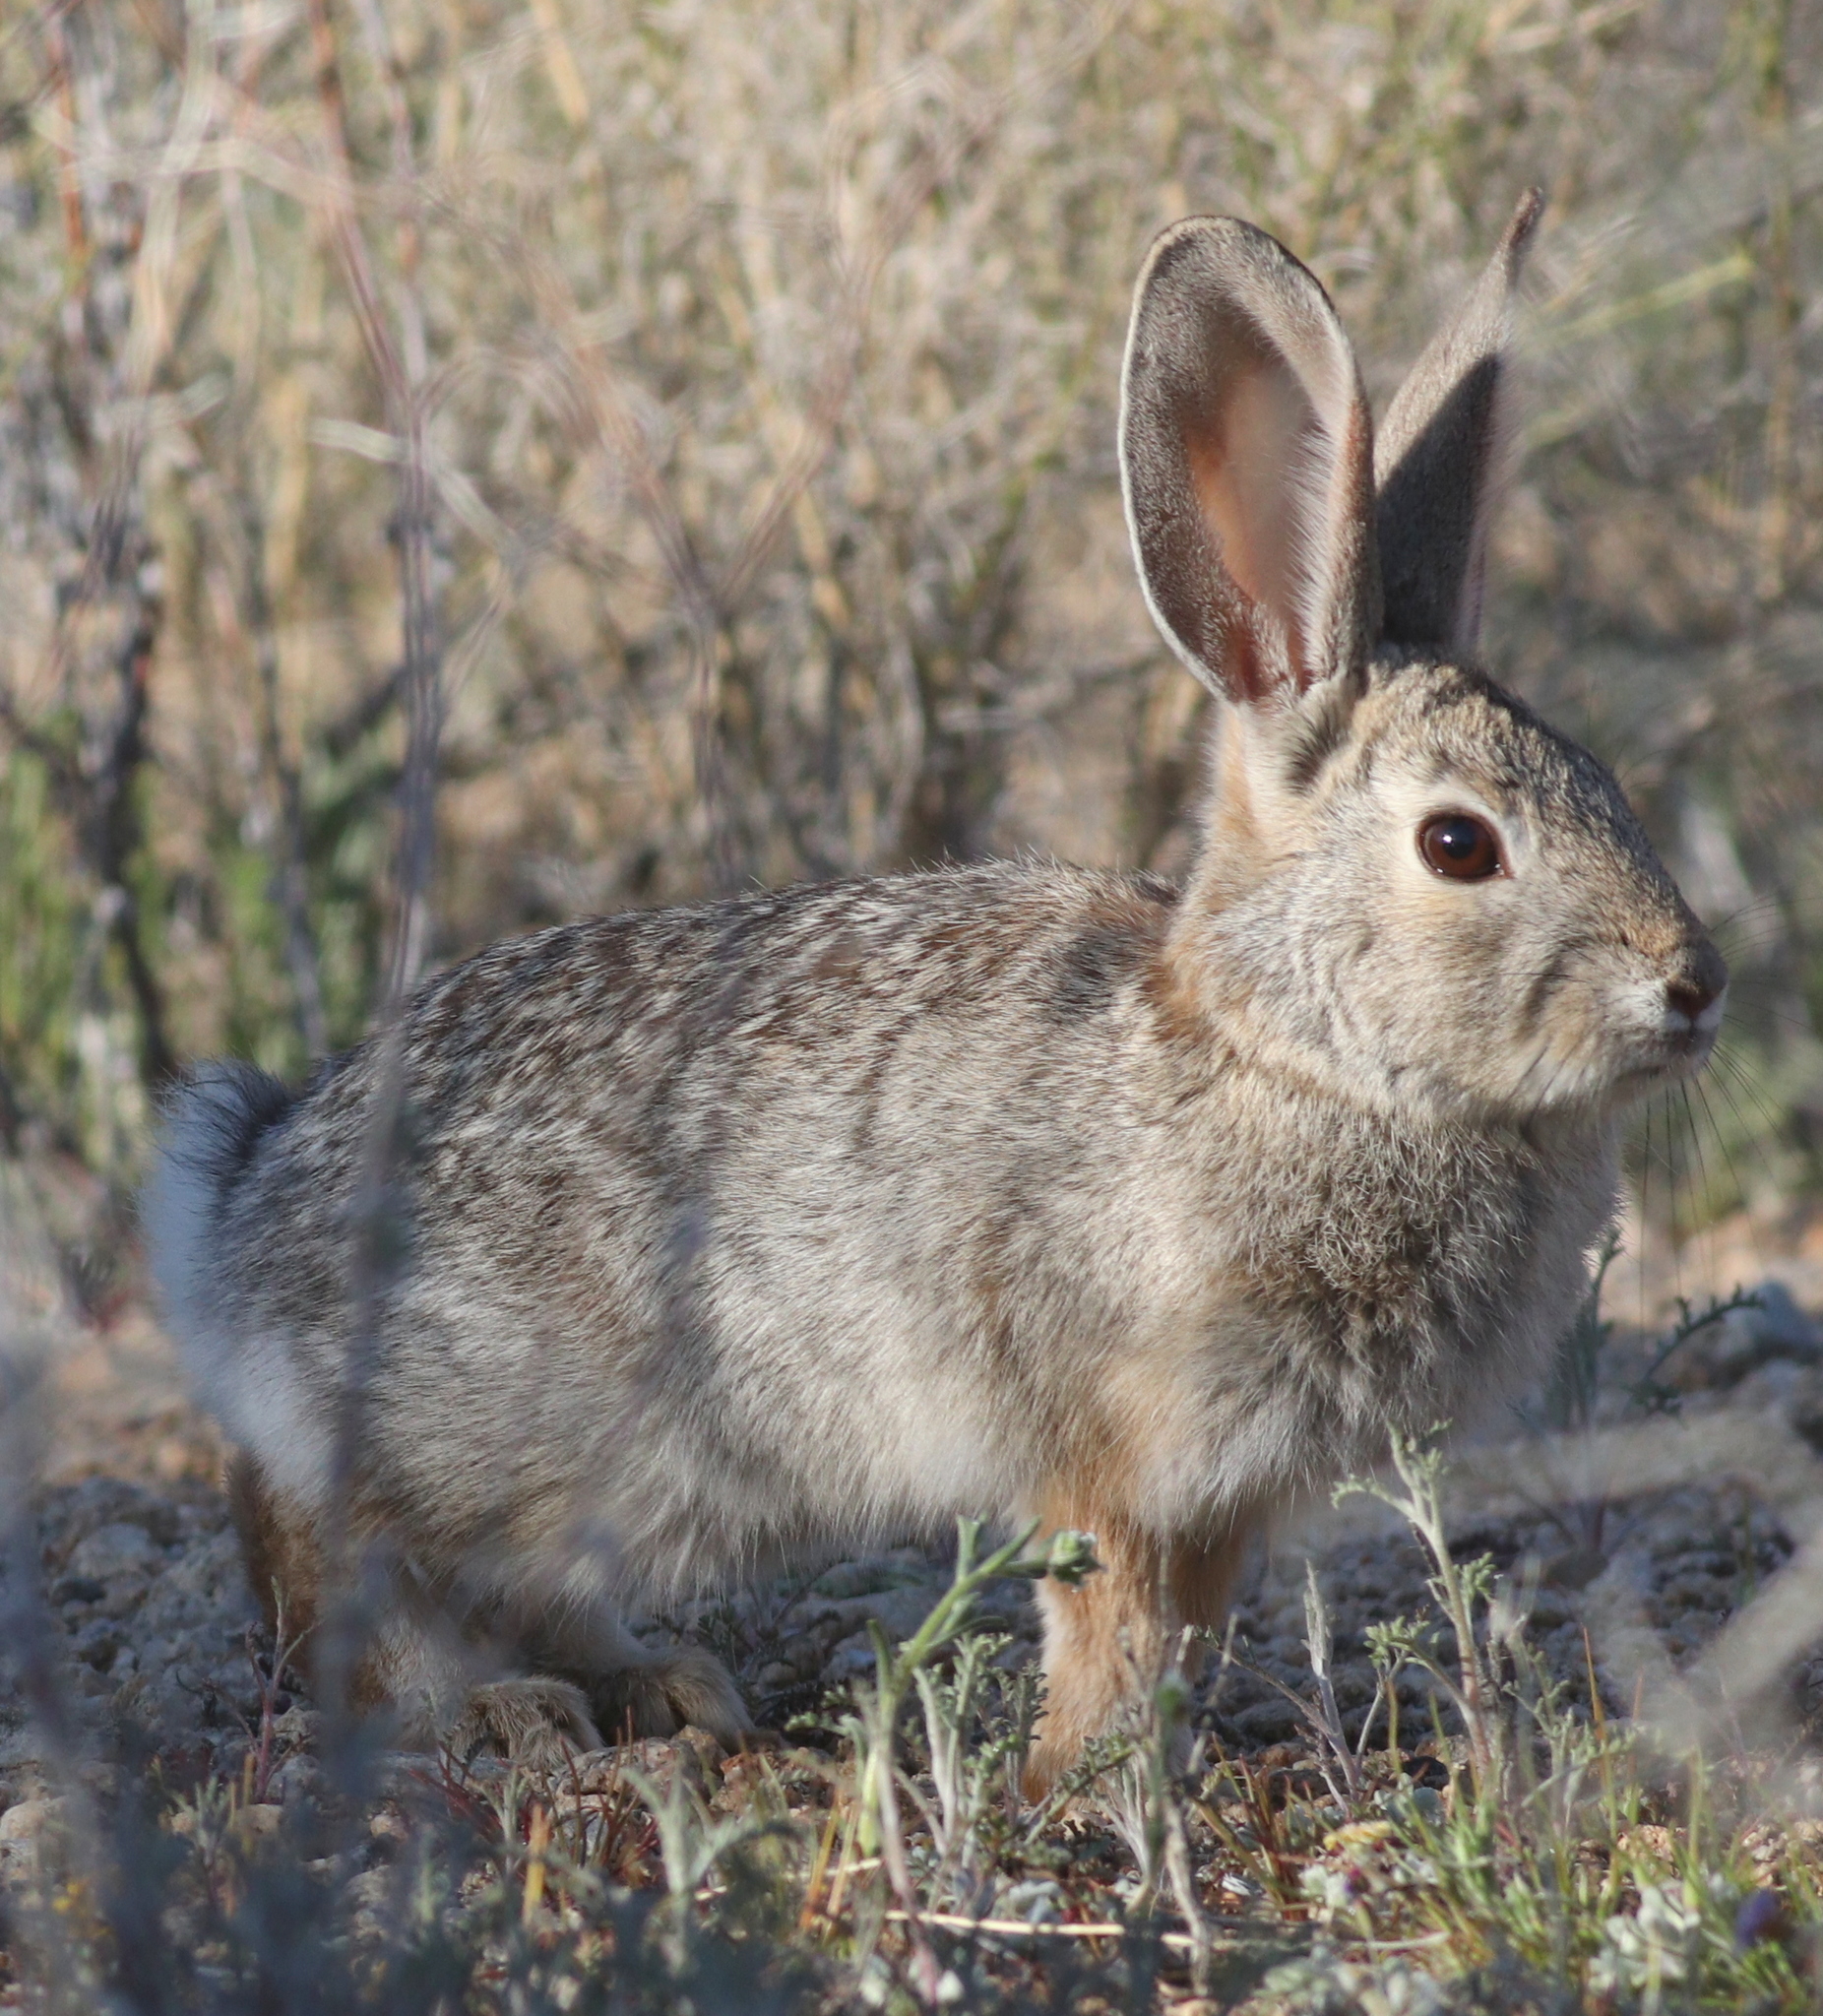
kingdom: Animalia
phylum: Chordata
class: Mammalia
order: Lagomorpha
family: Leporidae
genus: Sylvilagus
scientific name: Sylvilagus audubonii
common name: Desert cottontail
